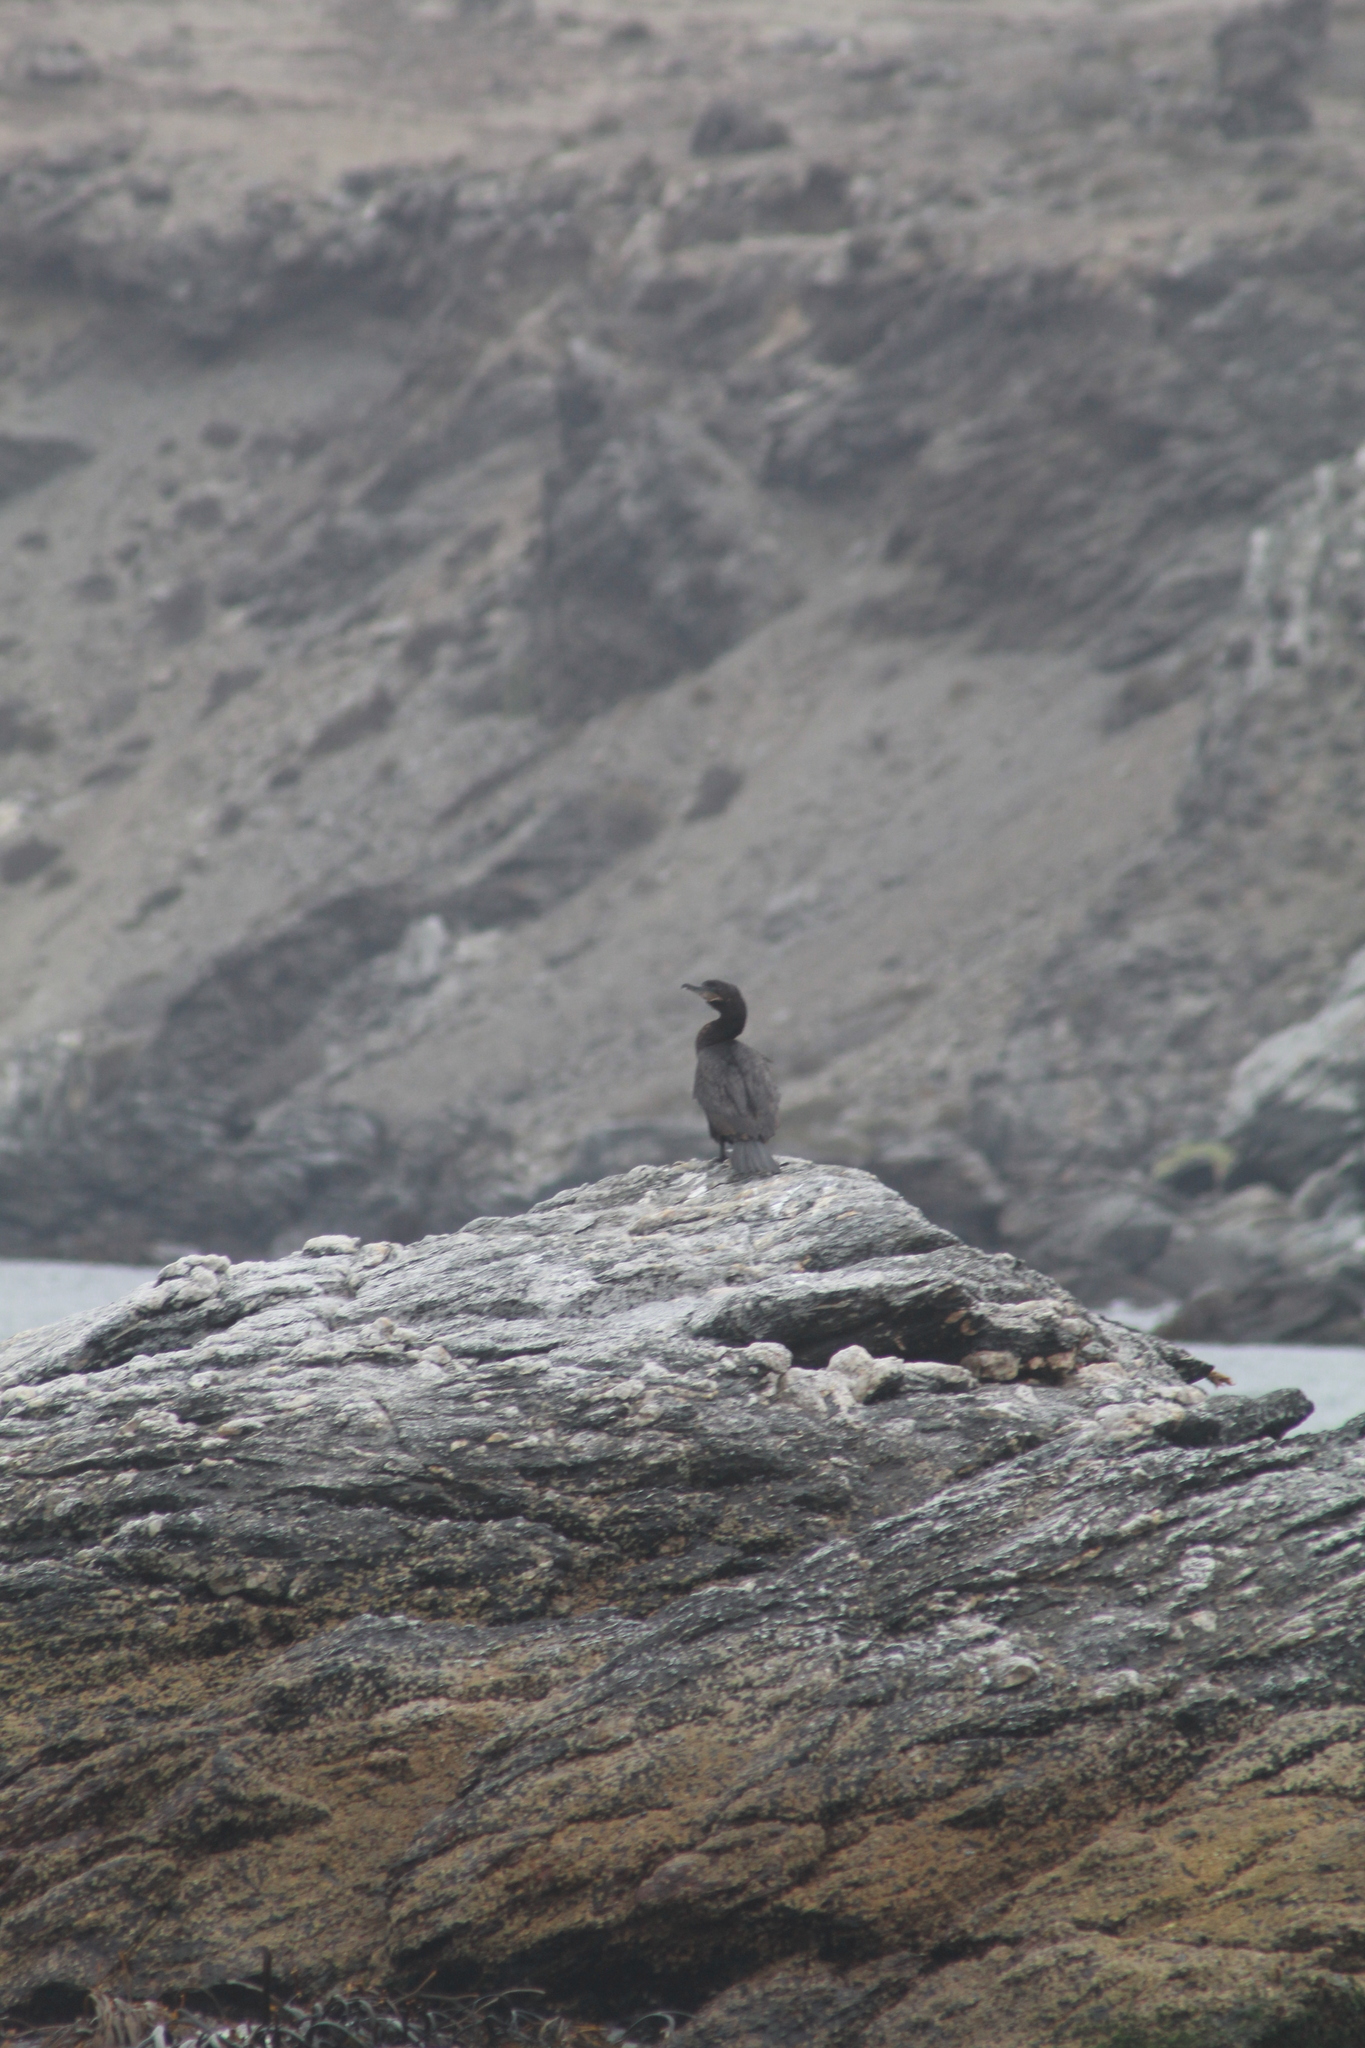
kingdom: Animalia
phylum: Chordata
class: Aves
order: Suliformes
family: Phalacrocoracidae
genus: Phalacrocorax
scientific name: Phalacrocorax brasilianus
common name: Neotropic cormorant
